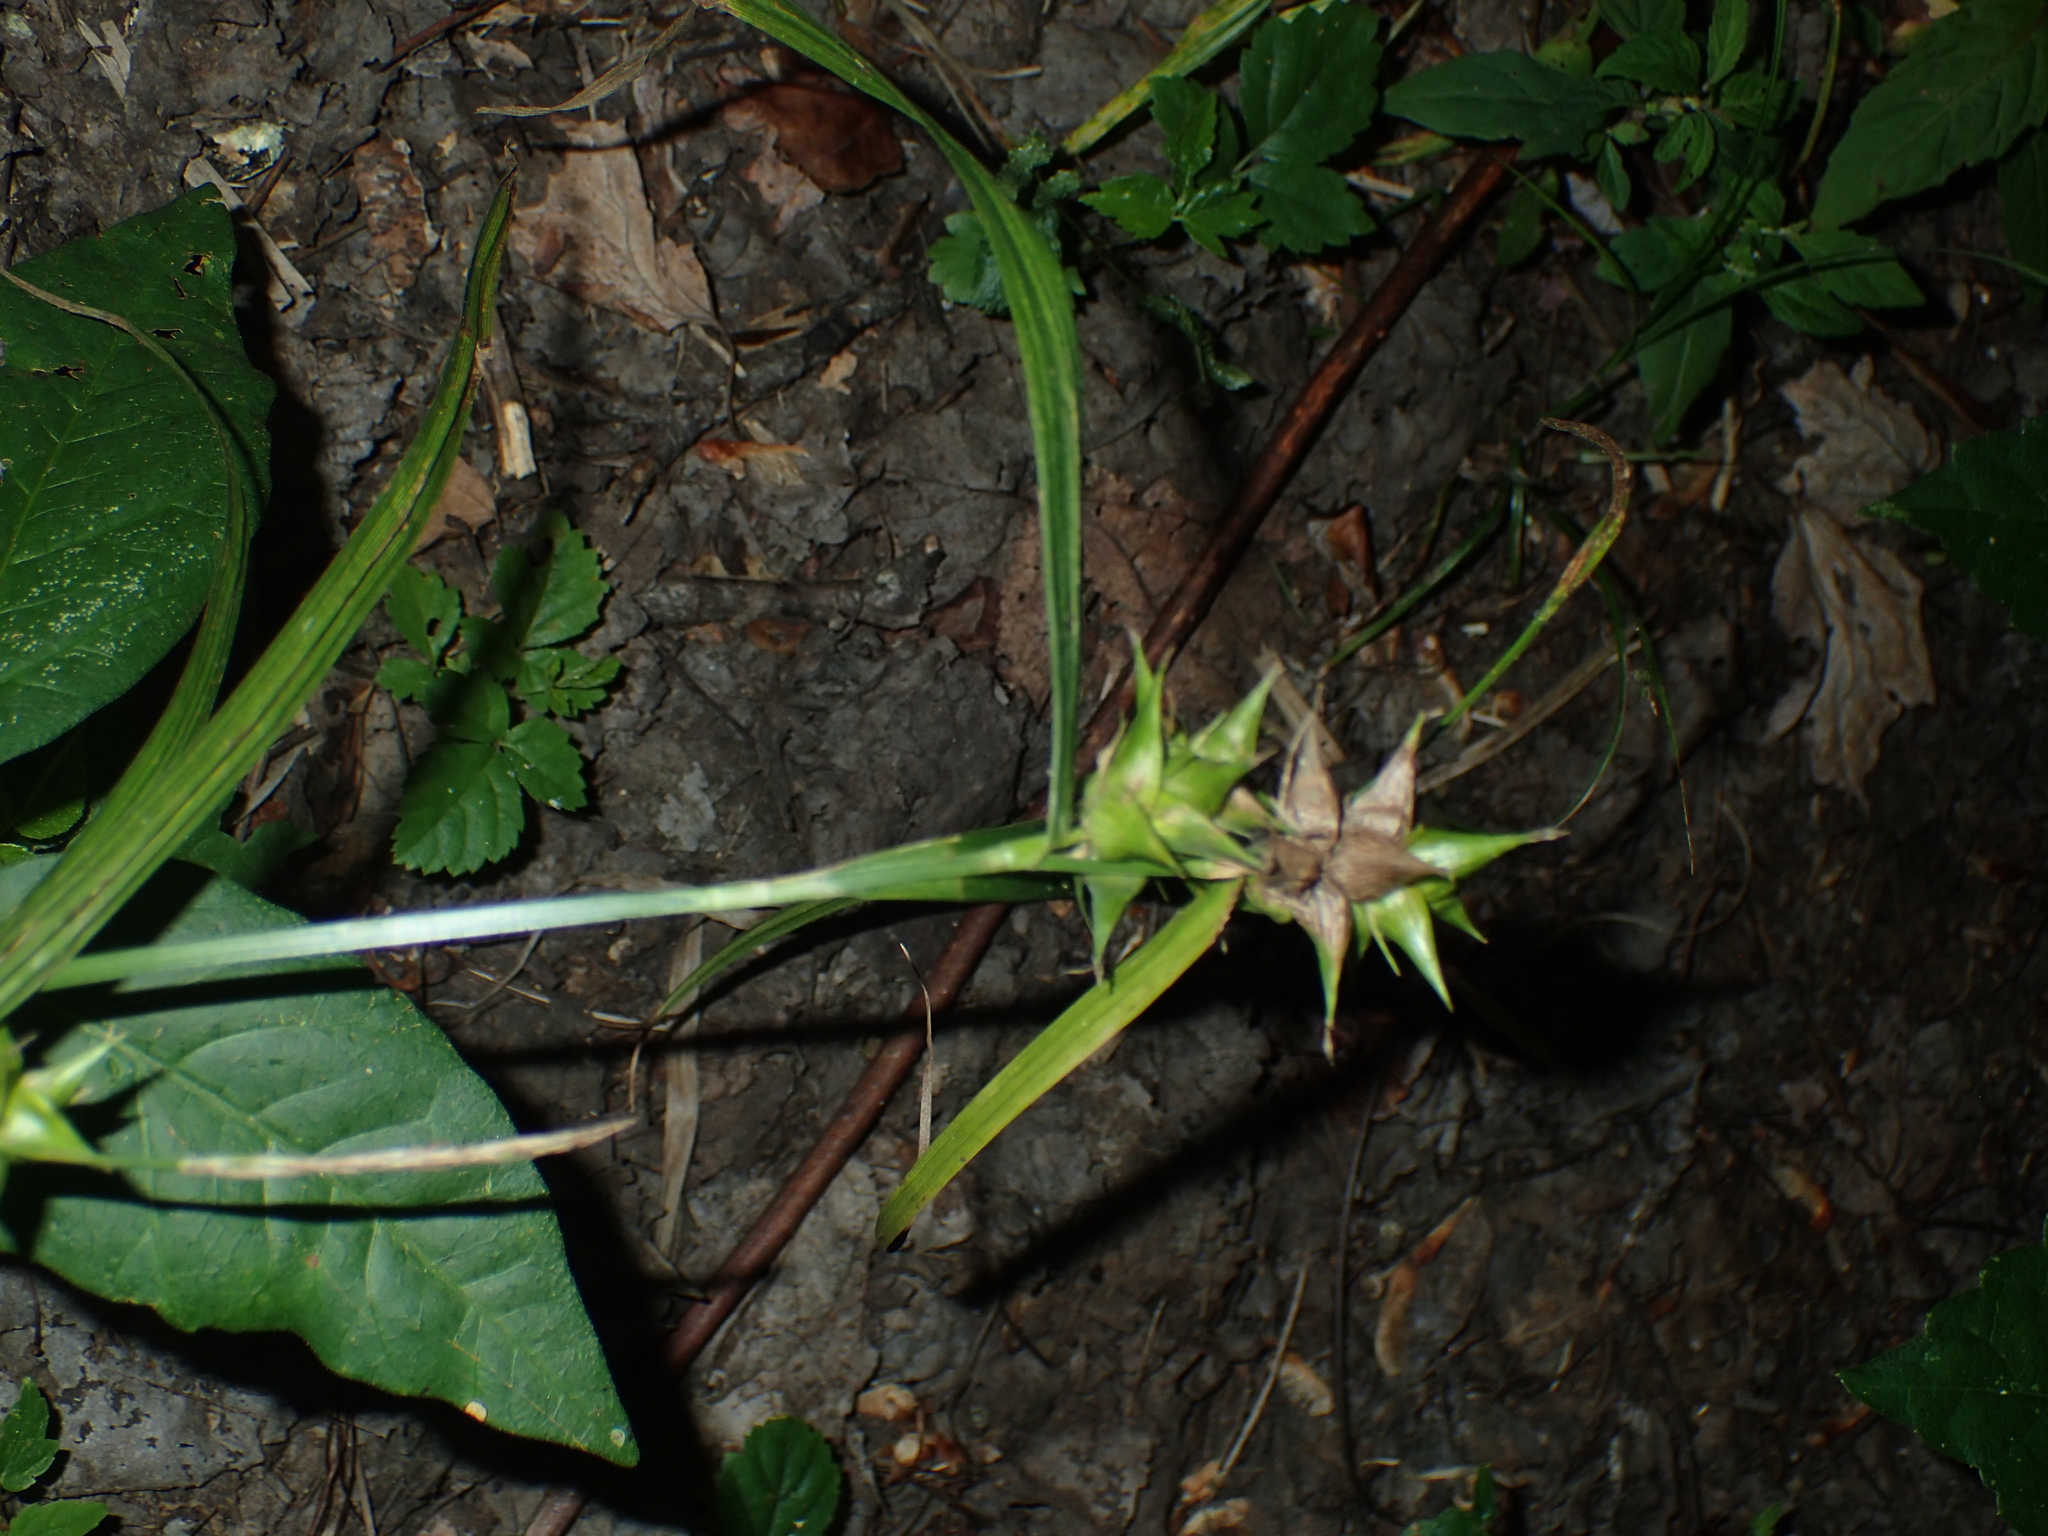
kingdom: Plantae
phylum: Tracheophyta
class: Liliopsida
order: Poales
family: Cyperaceae
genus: Carex
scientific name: Carex intumescens
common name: Greater bladder sedge
